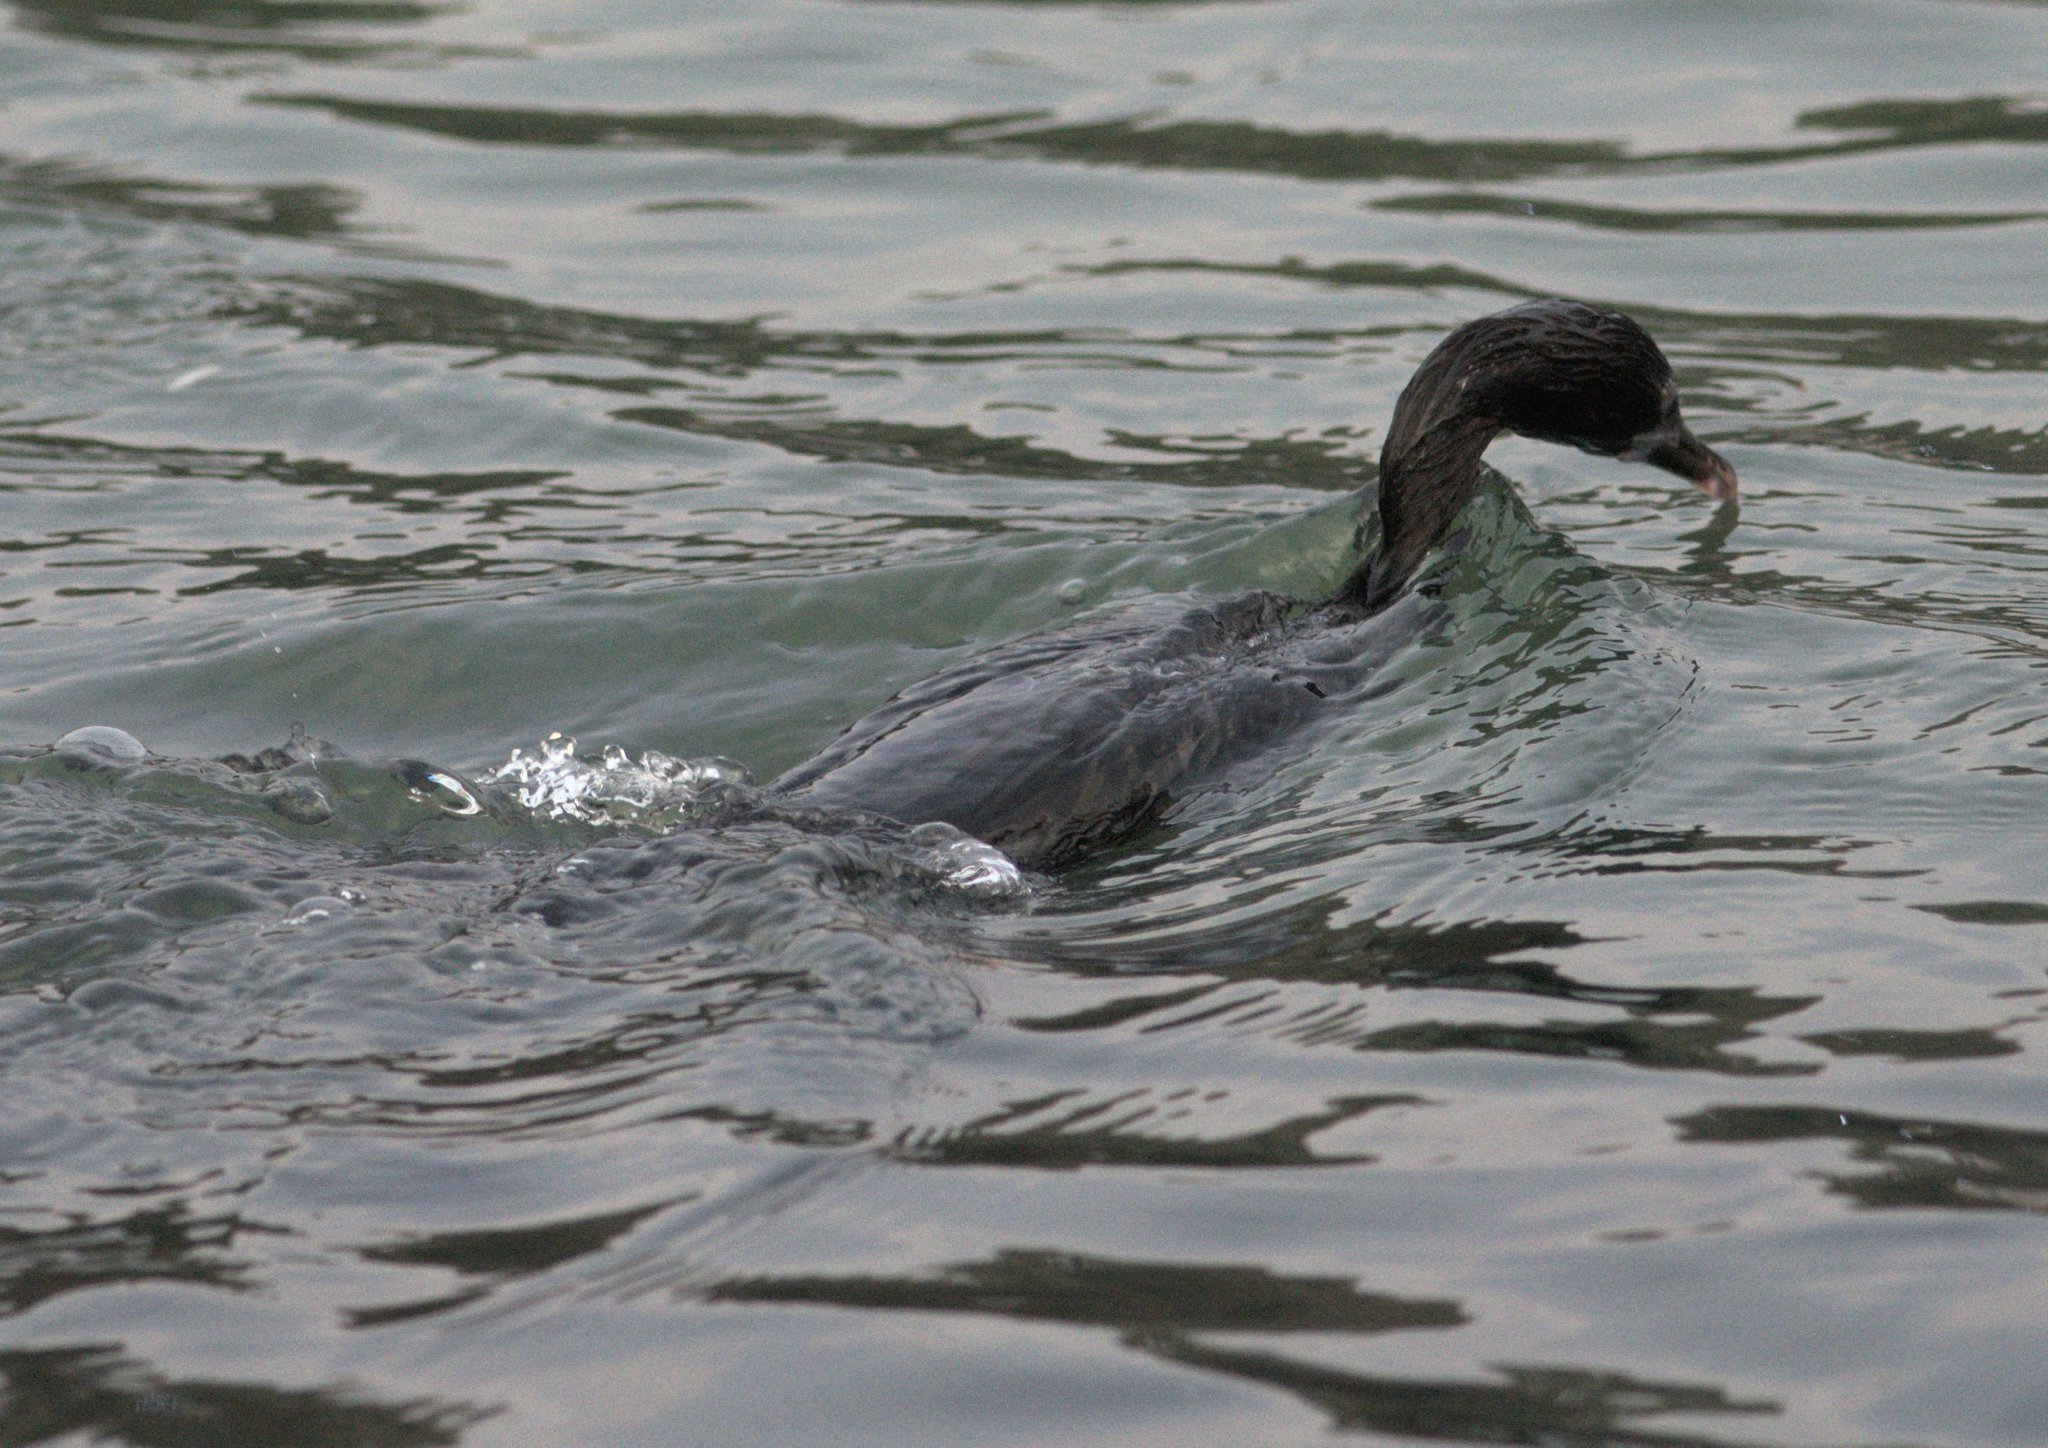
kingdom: Animalia
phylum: Chordata
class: Aves
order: Suliformes
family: Phalacrocoracidae
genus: Microcarbo
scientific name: Microcarbo niger
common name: Little cormorant
